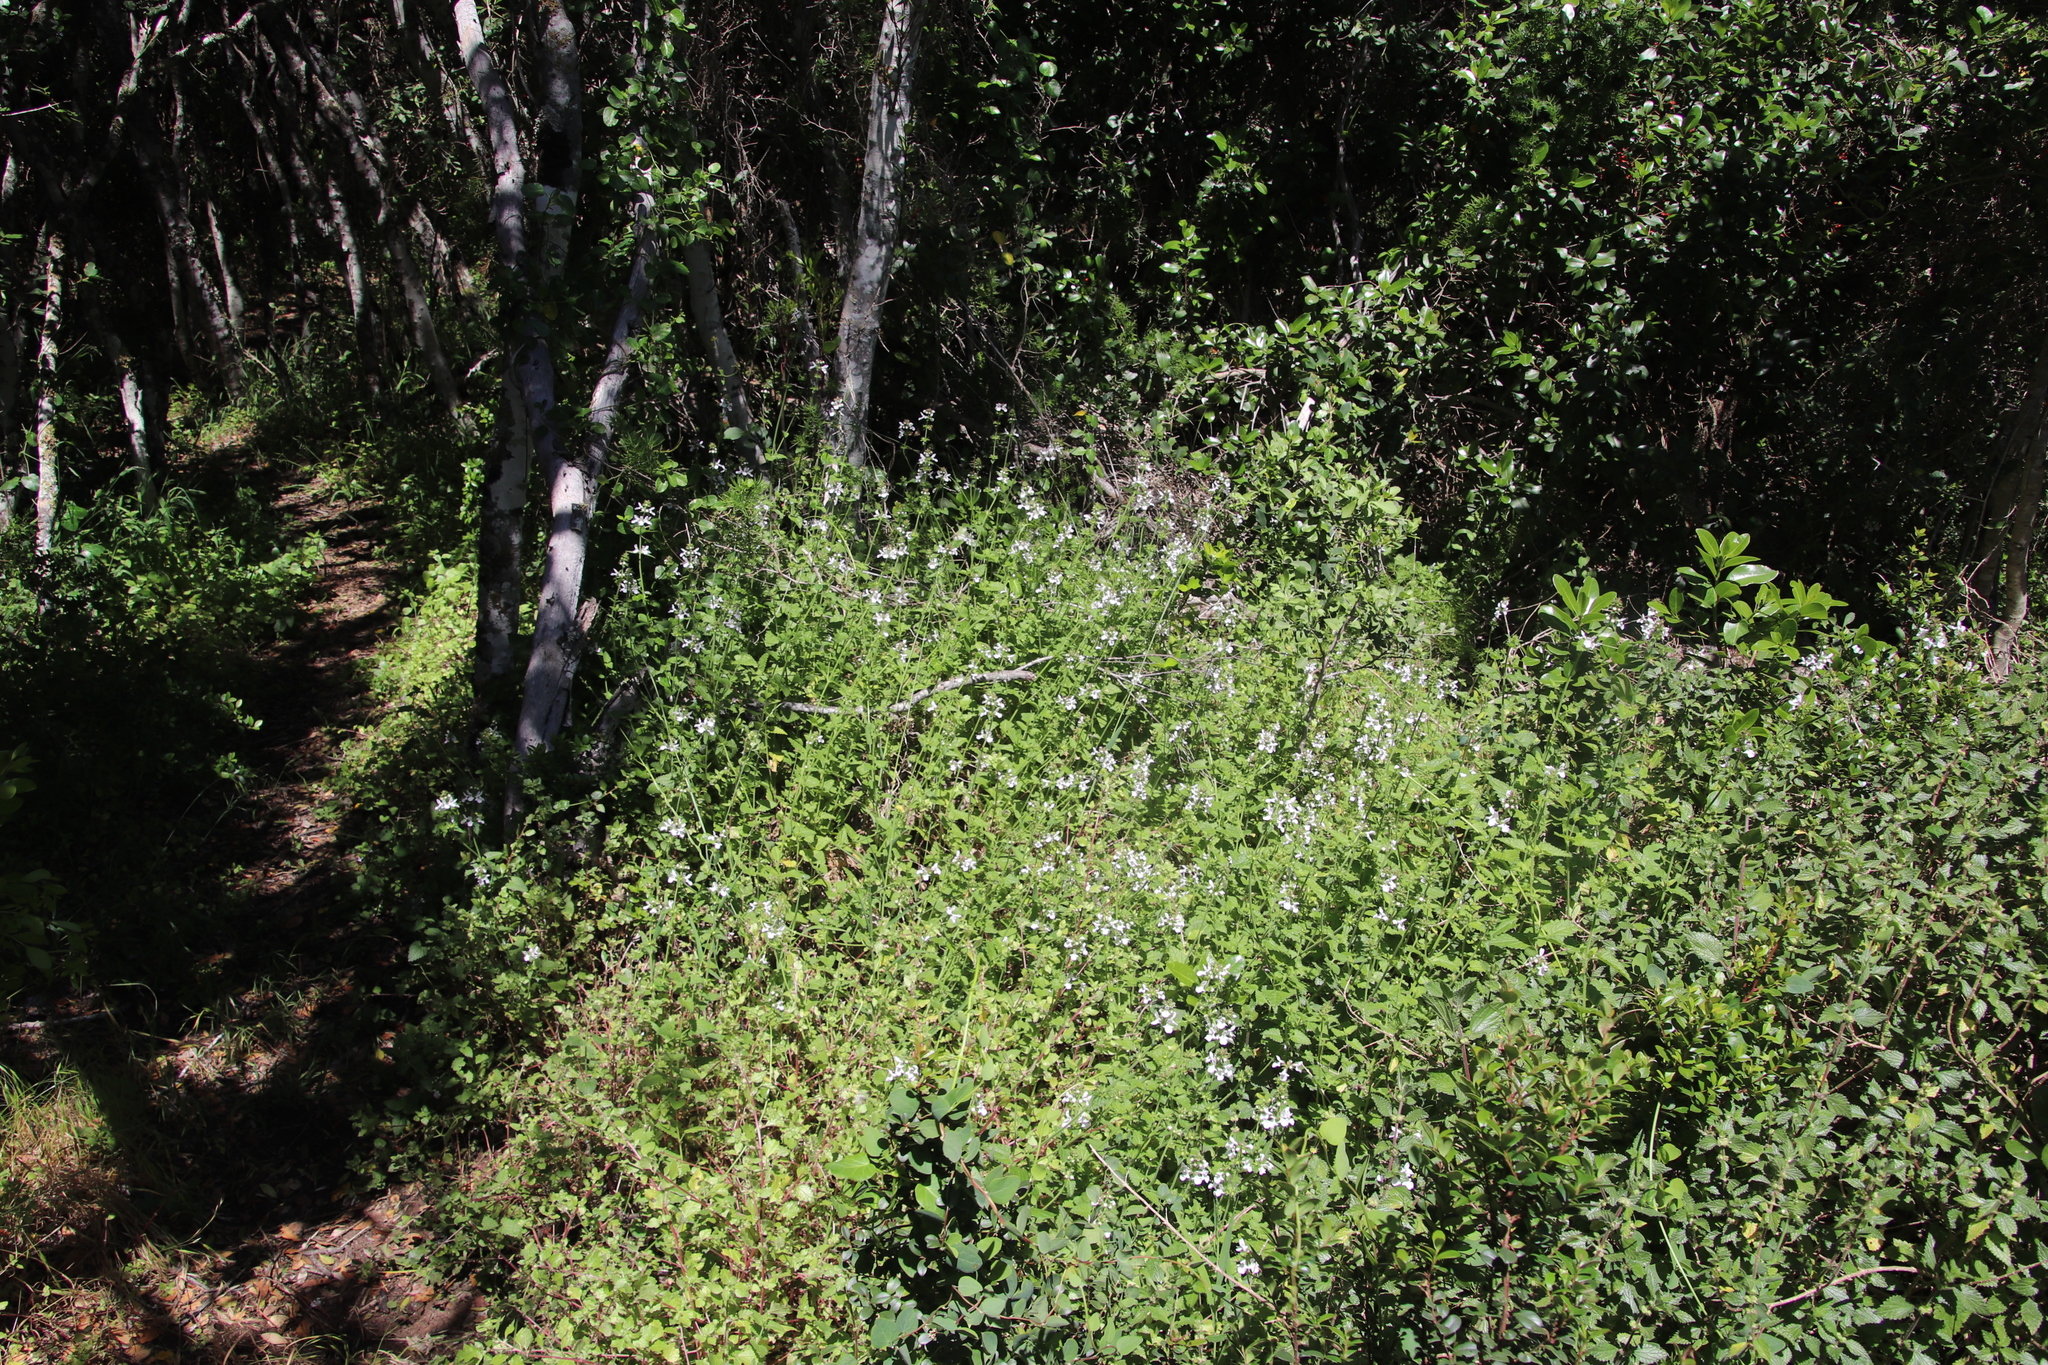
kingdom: Plantae
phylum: Tracheophyta
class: Magnoliopsida
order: Lamiales
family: Lamiaceae
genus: Stachys
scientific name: Stachys aethiopica
